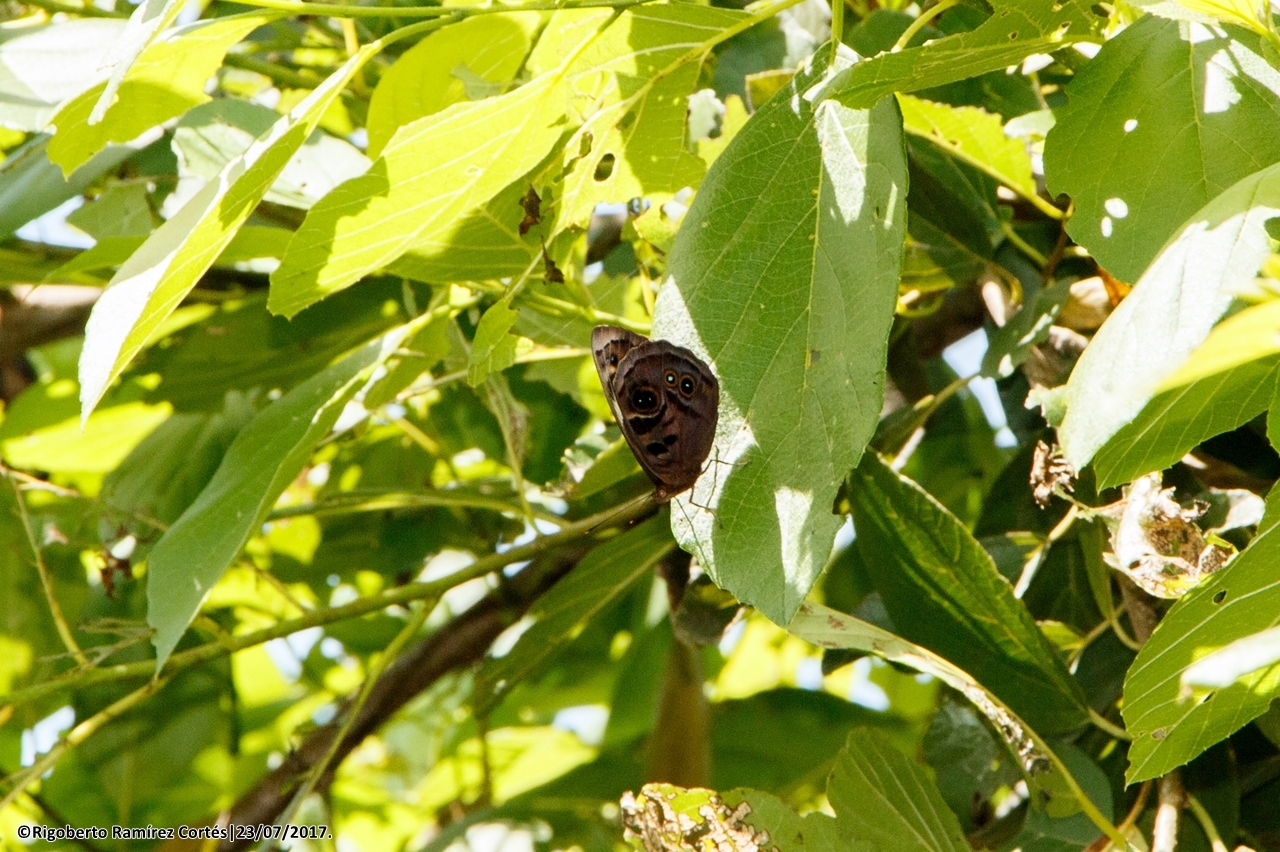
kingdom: Animalia
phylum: Arthropoda
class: Insecta
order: Lepidoptera
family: Nymphalidae
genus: Eunica
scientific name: Eunica alcmena
